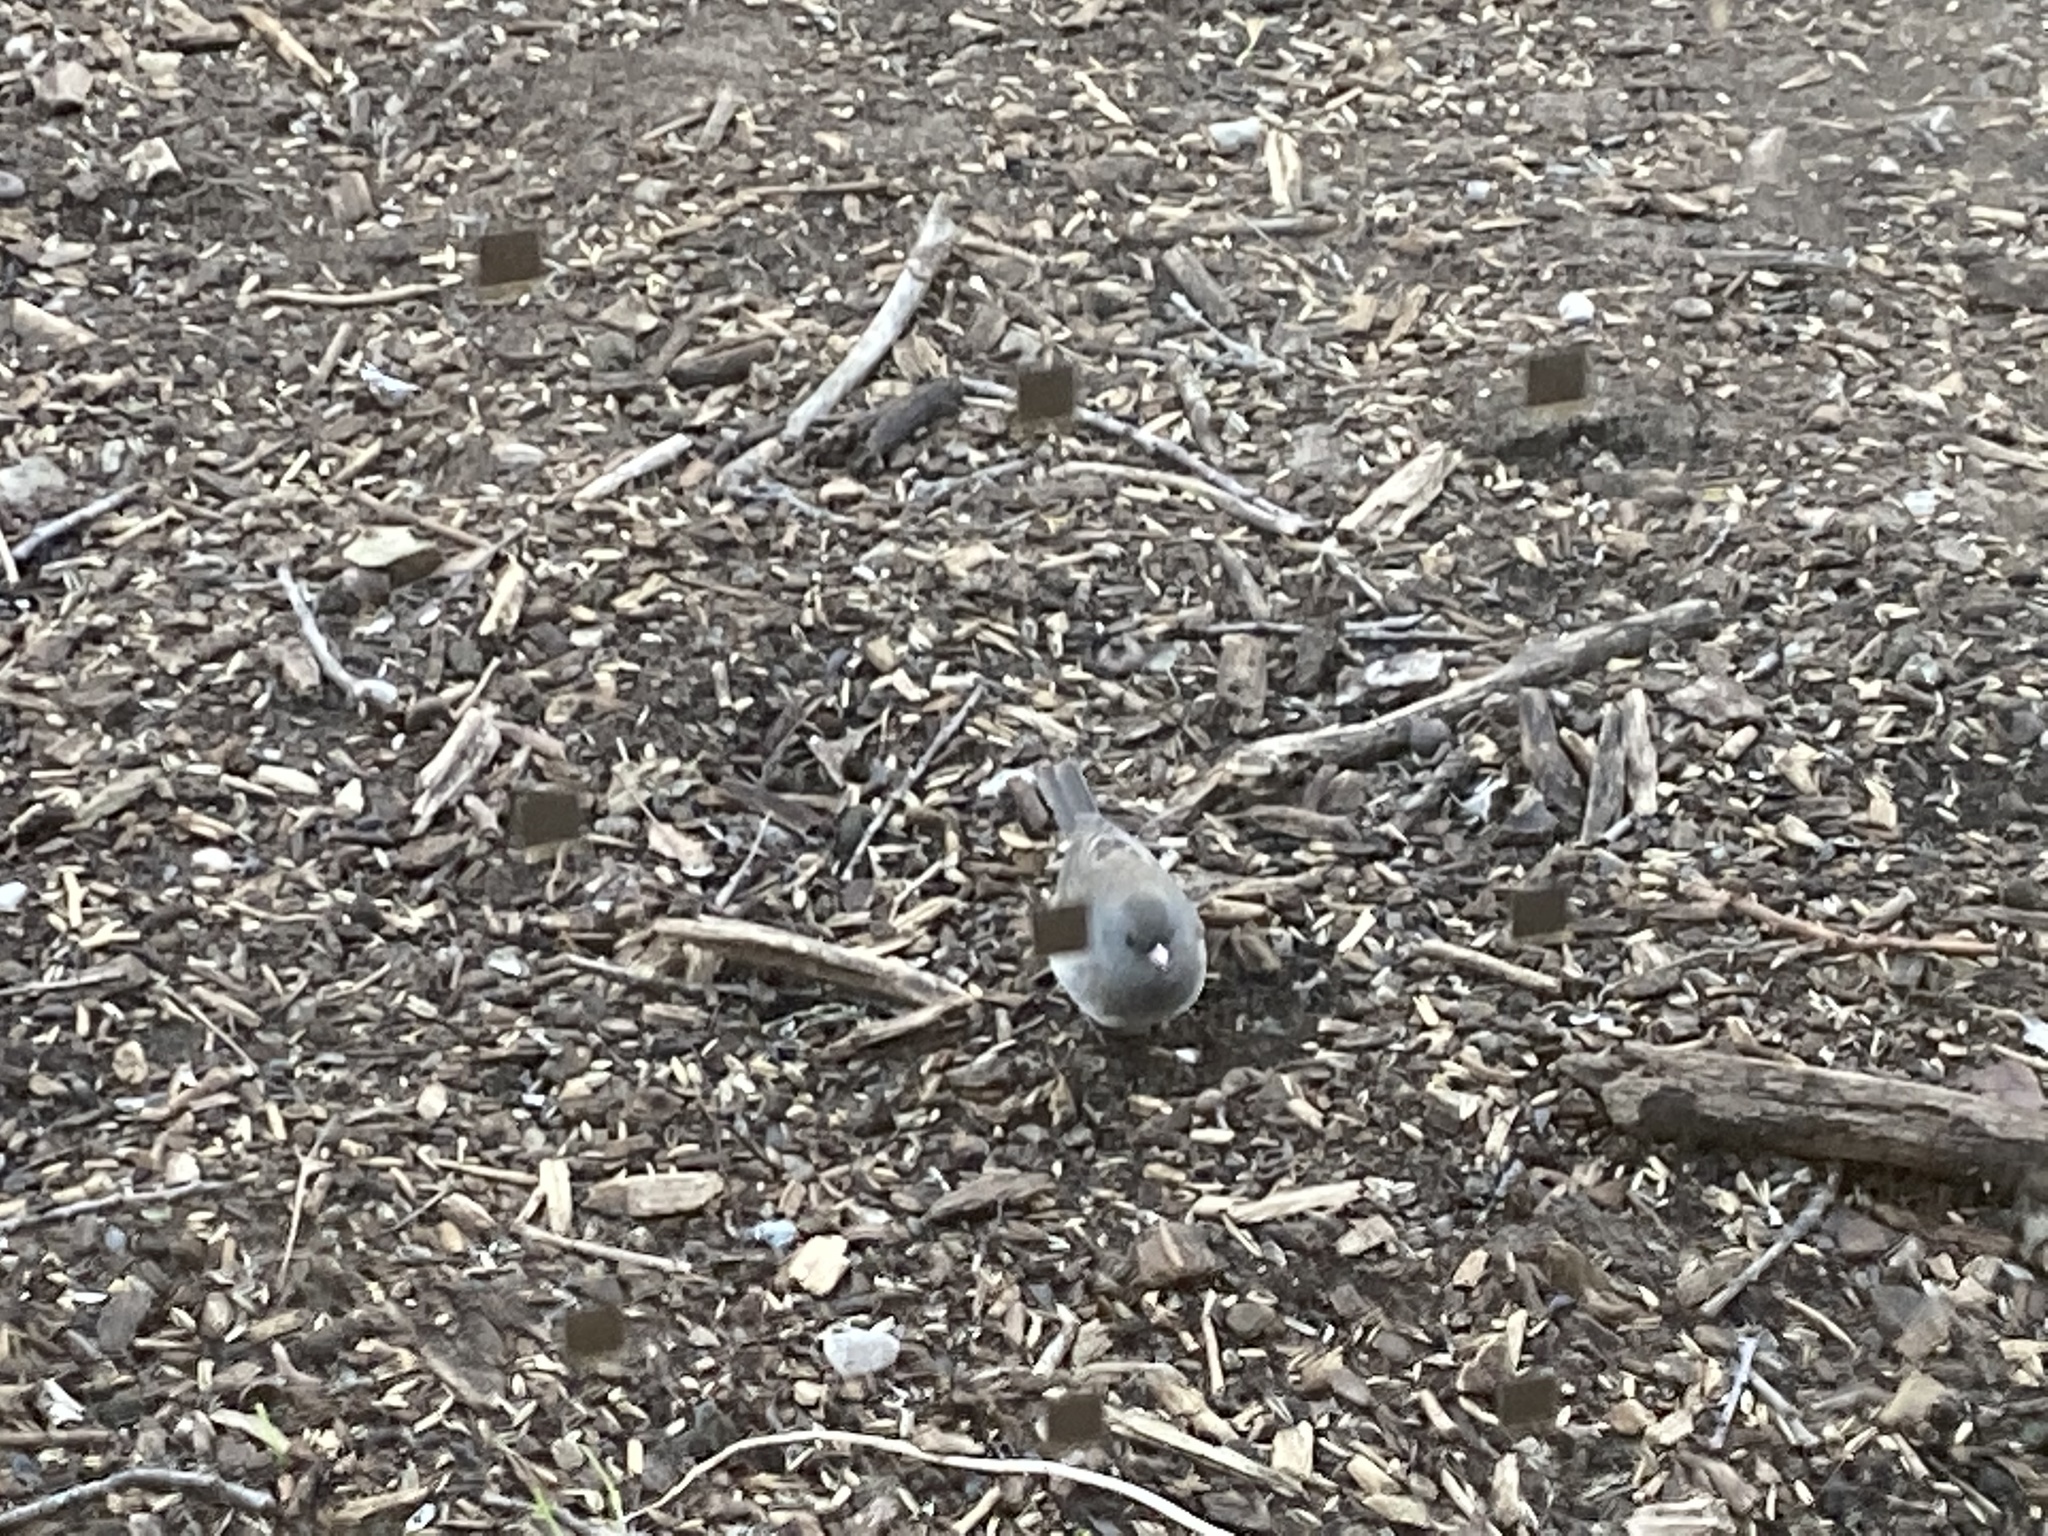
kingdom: Animalia
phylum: Chordata
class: Aves
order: Passeriformes
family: Passerellidae
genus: Junco
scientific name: Junco hyemalis
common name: Dark-eyed junco
